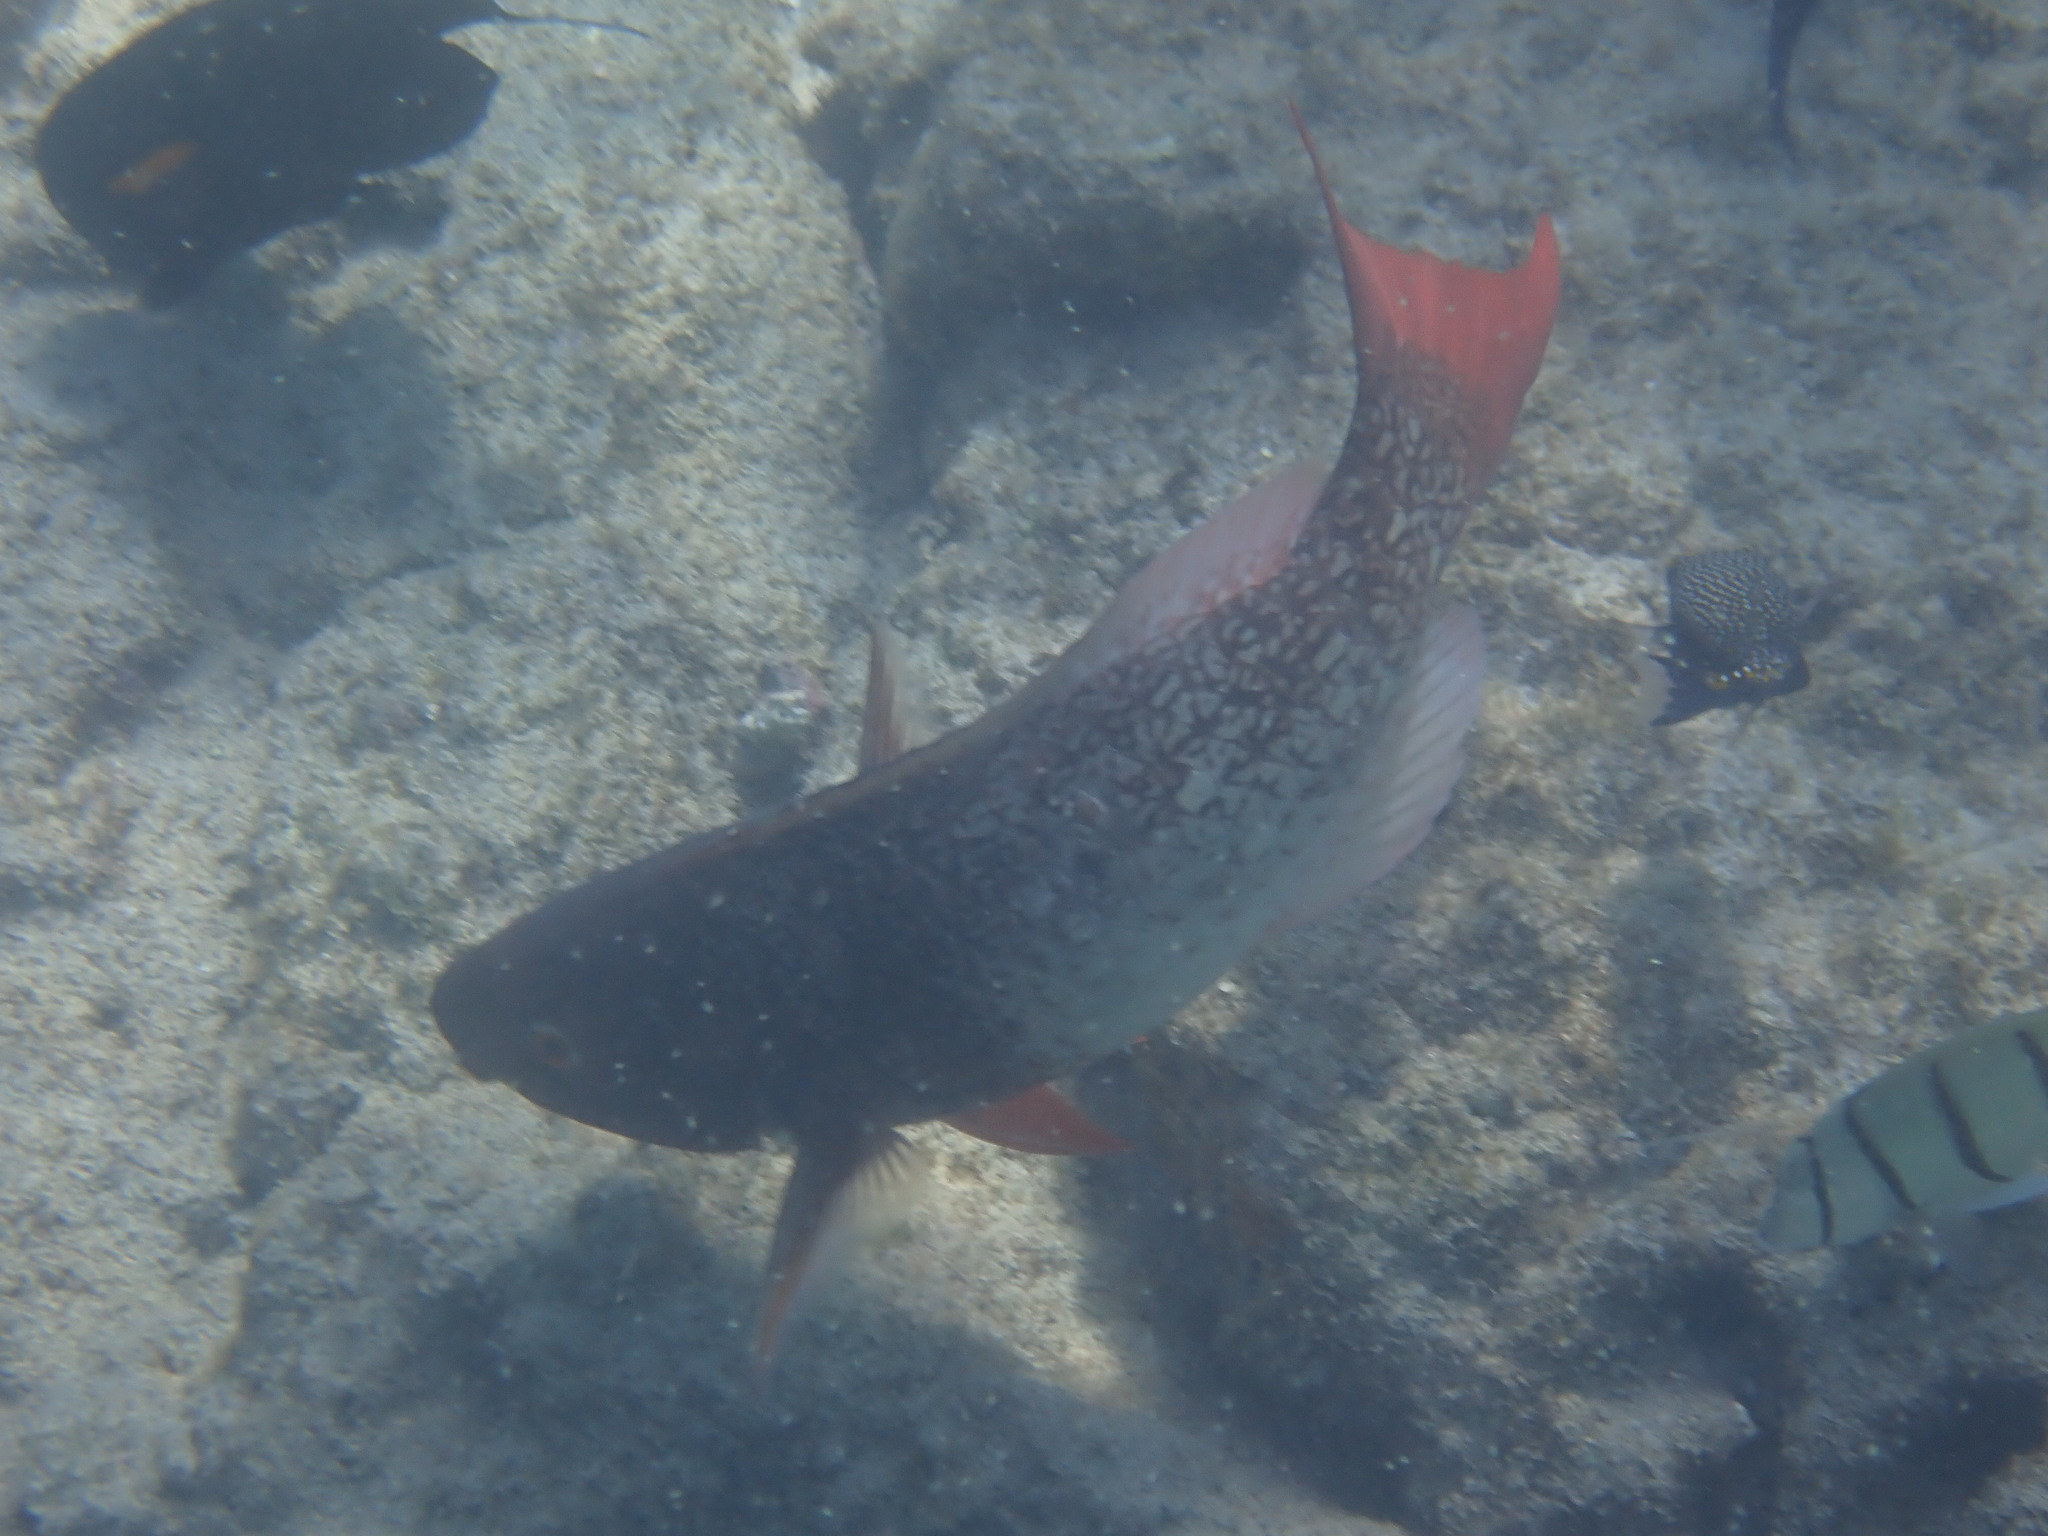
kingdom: Animalia
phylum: Chordata
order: Perciformes
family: Scaridae
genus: Scarus
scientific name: Scarus rubroviolaceus
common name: Ember parrotfish
